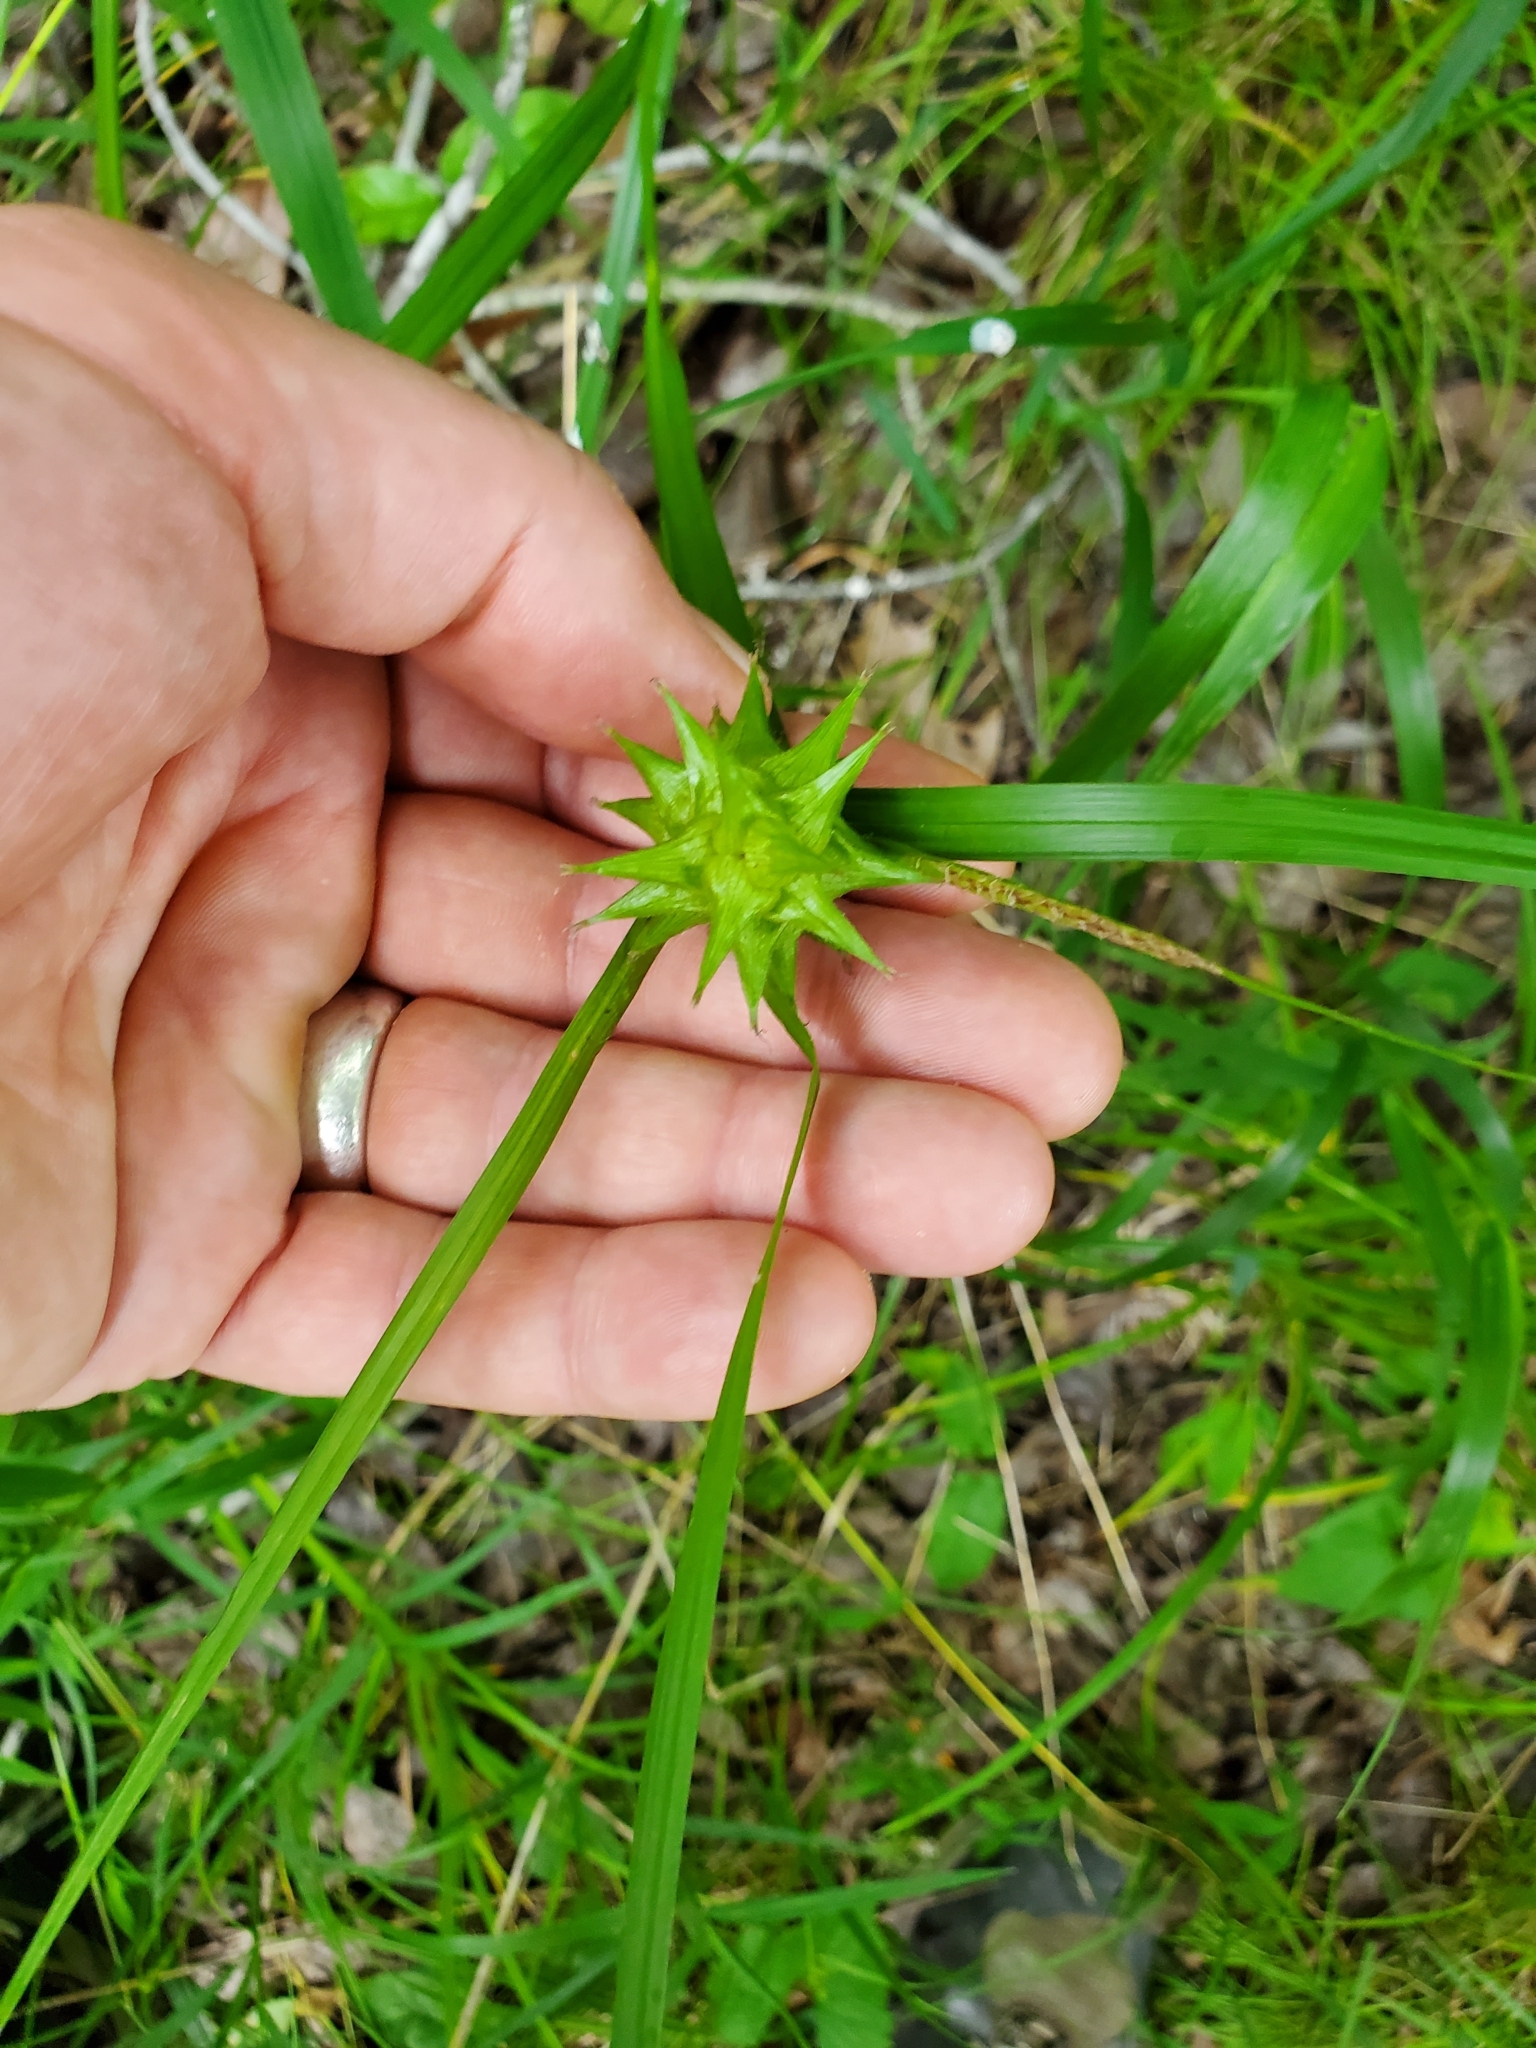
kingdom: Plantae
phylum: Tracheophyta
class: Liliopsida
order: Poales
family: Cyperaceae
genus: Carex
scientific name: Carex grayi
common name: Asa gray's sedge
